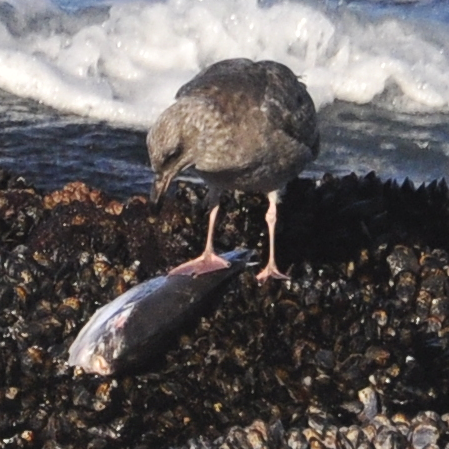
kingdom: Animalia
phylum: Chordata
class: Aves
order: Charadriiformes
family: Laridae
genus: Larus
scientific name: Larus occidentalis
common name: Western gull
